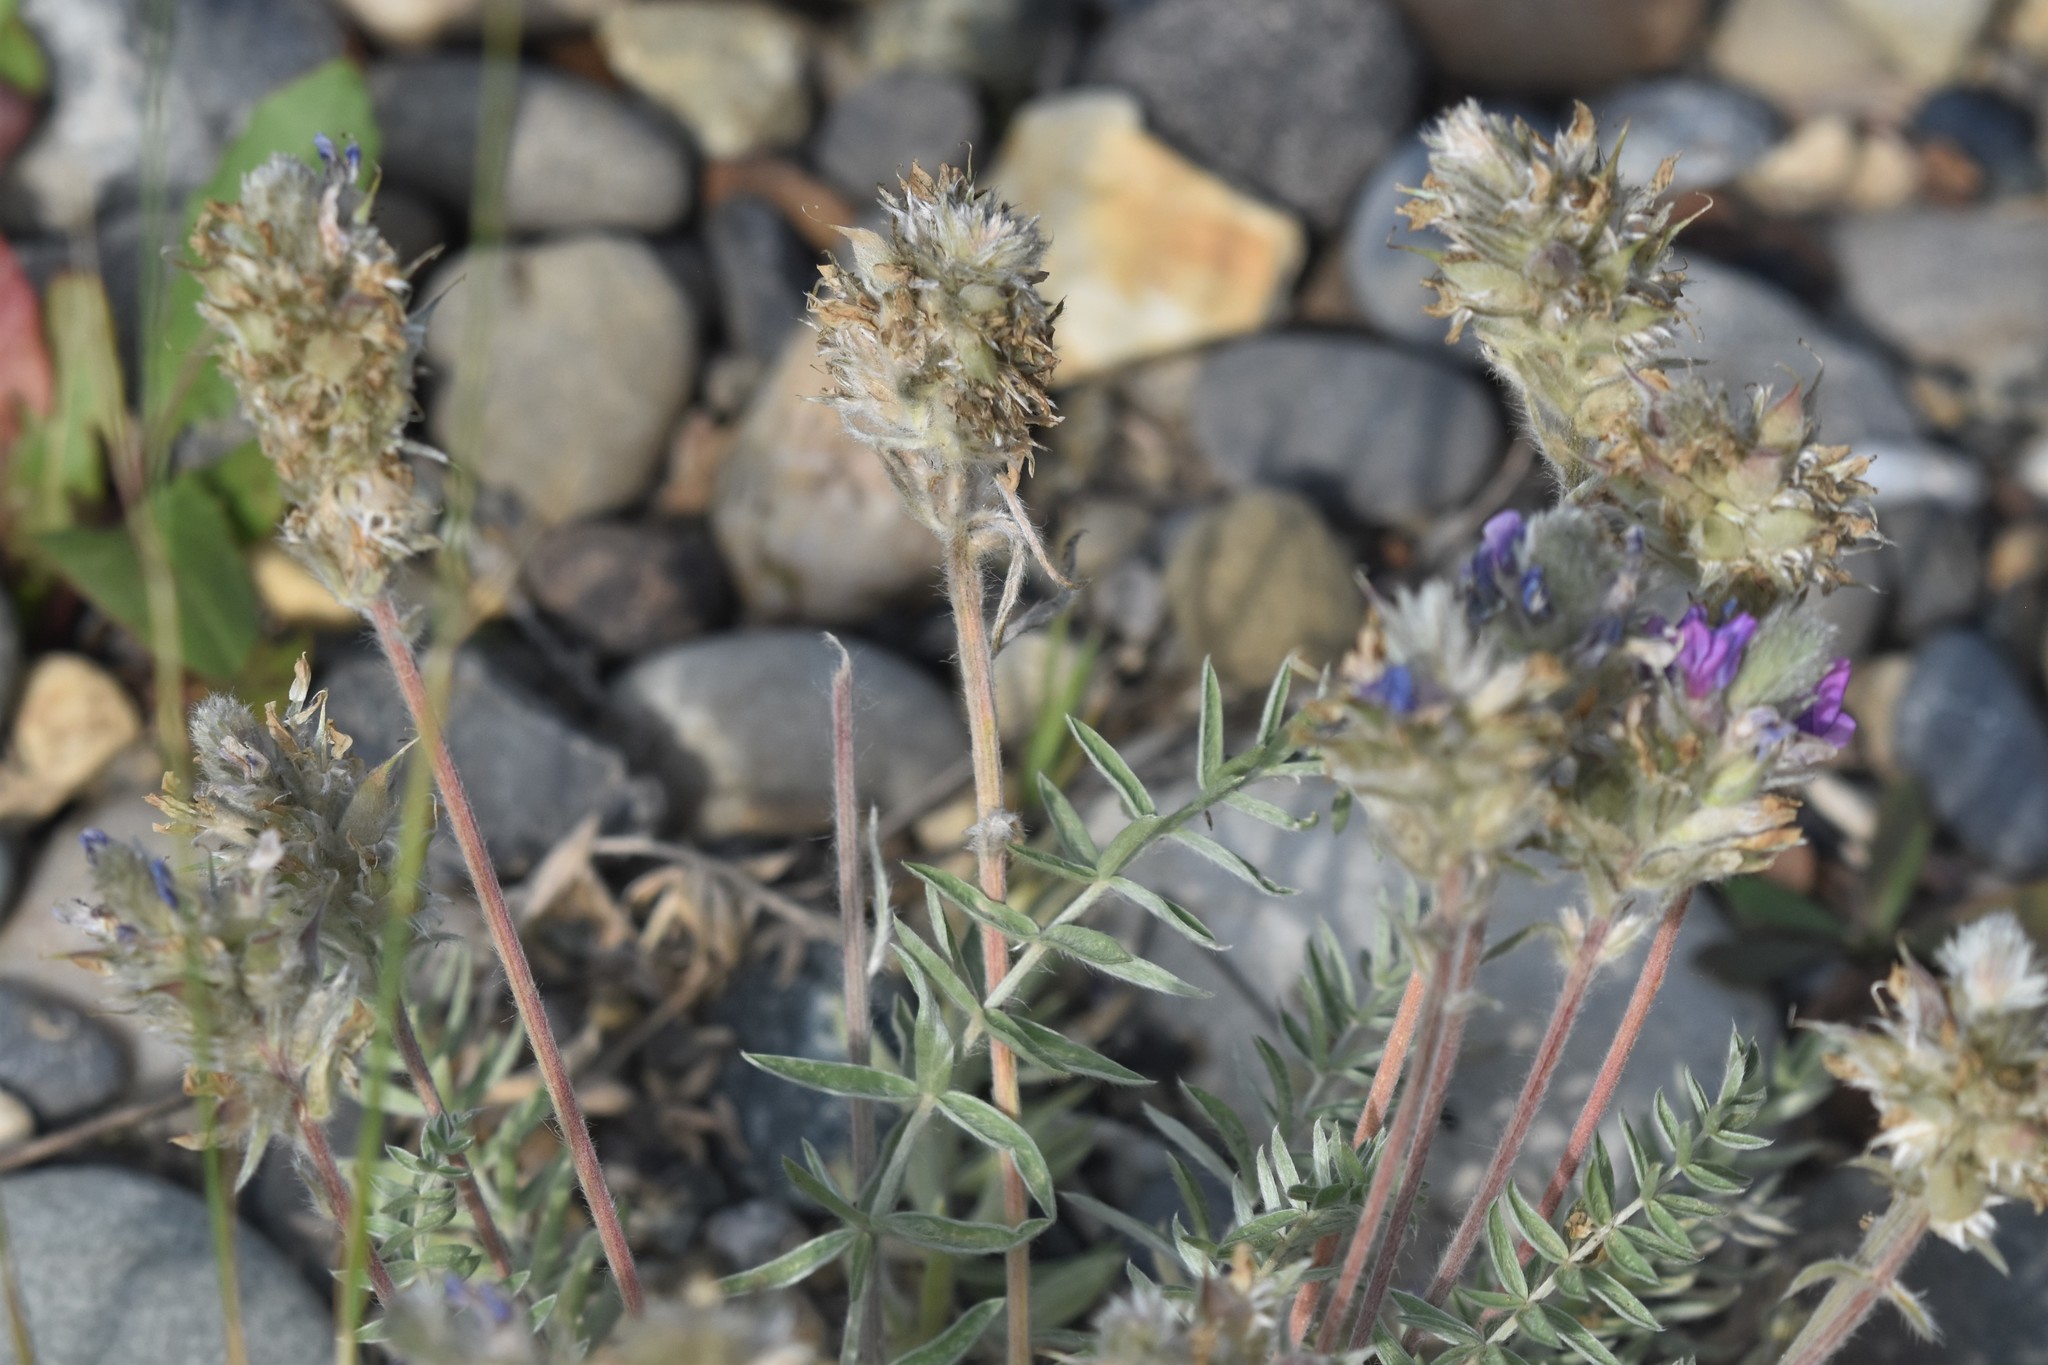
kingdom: Plantae
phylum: Tracheophyta
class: Magnoliopsida
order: Fabales
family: Fabaceae
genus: Oxytropis
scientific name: Oxytropis splendens
